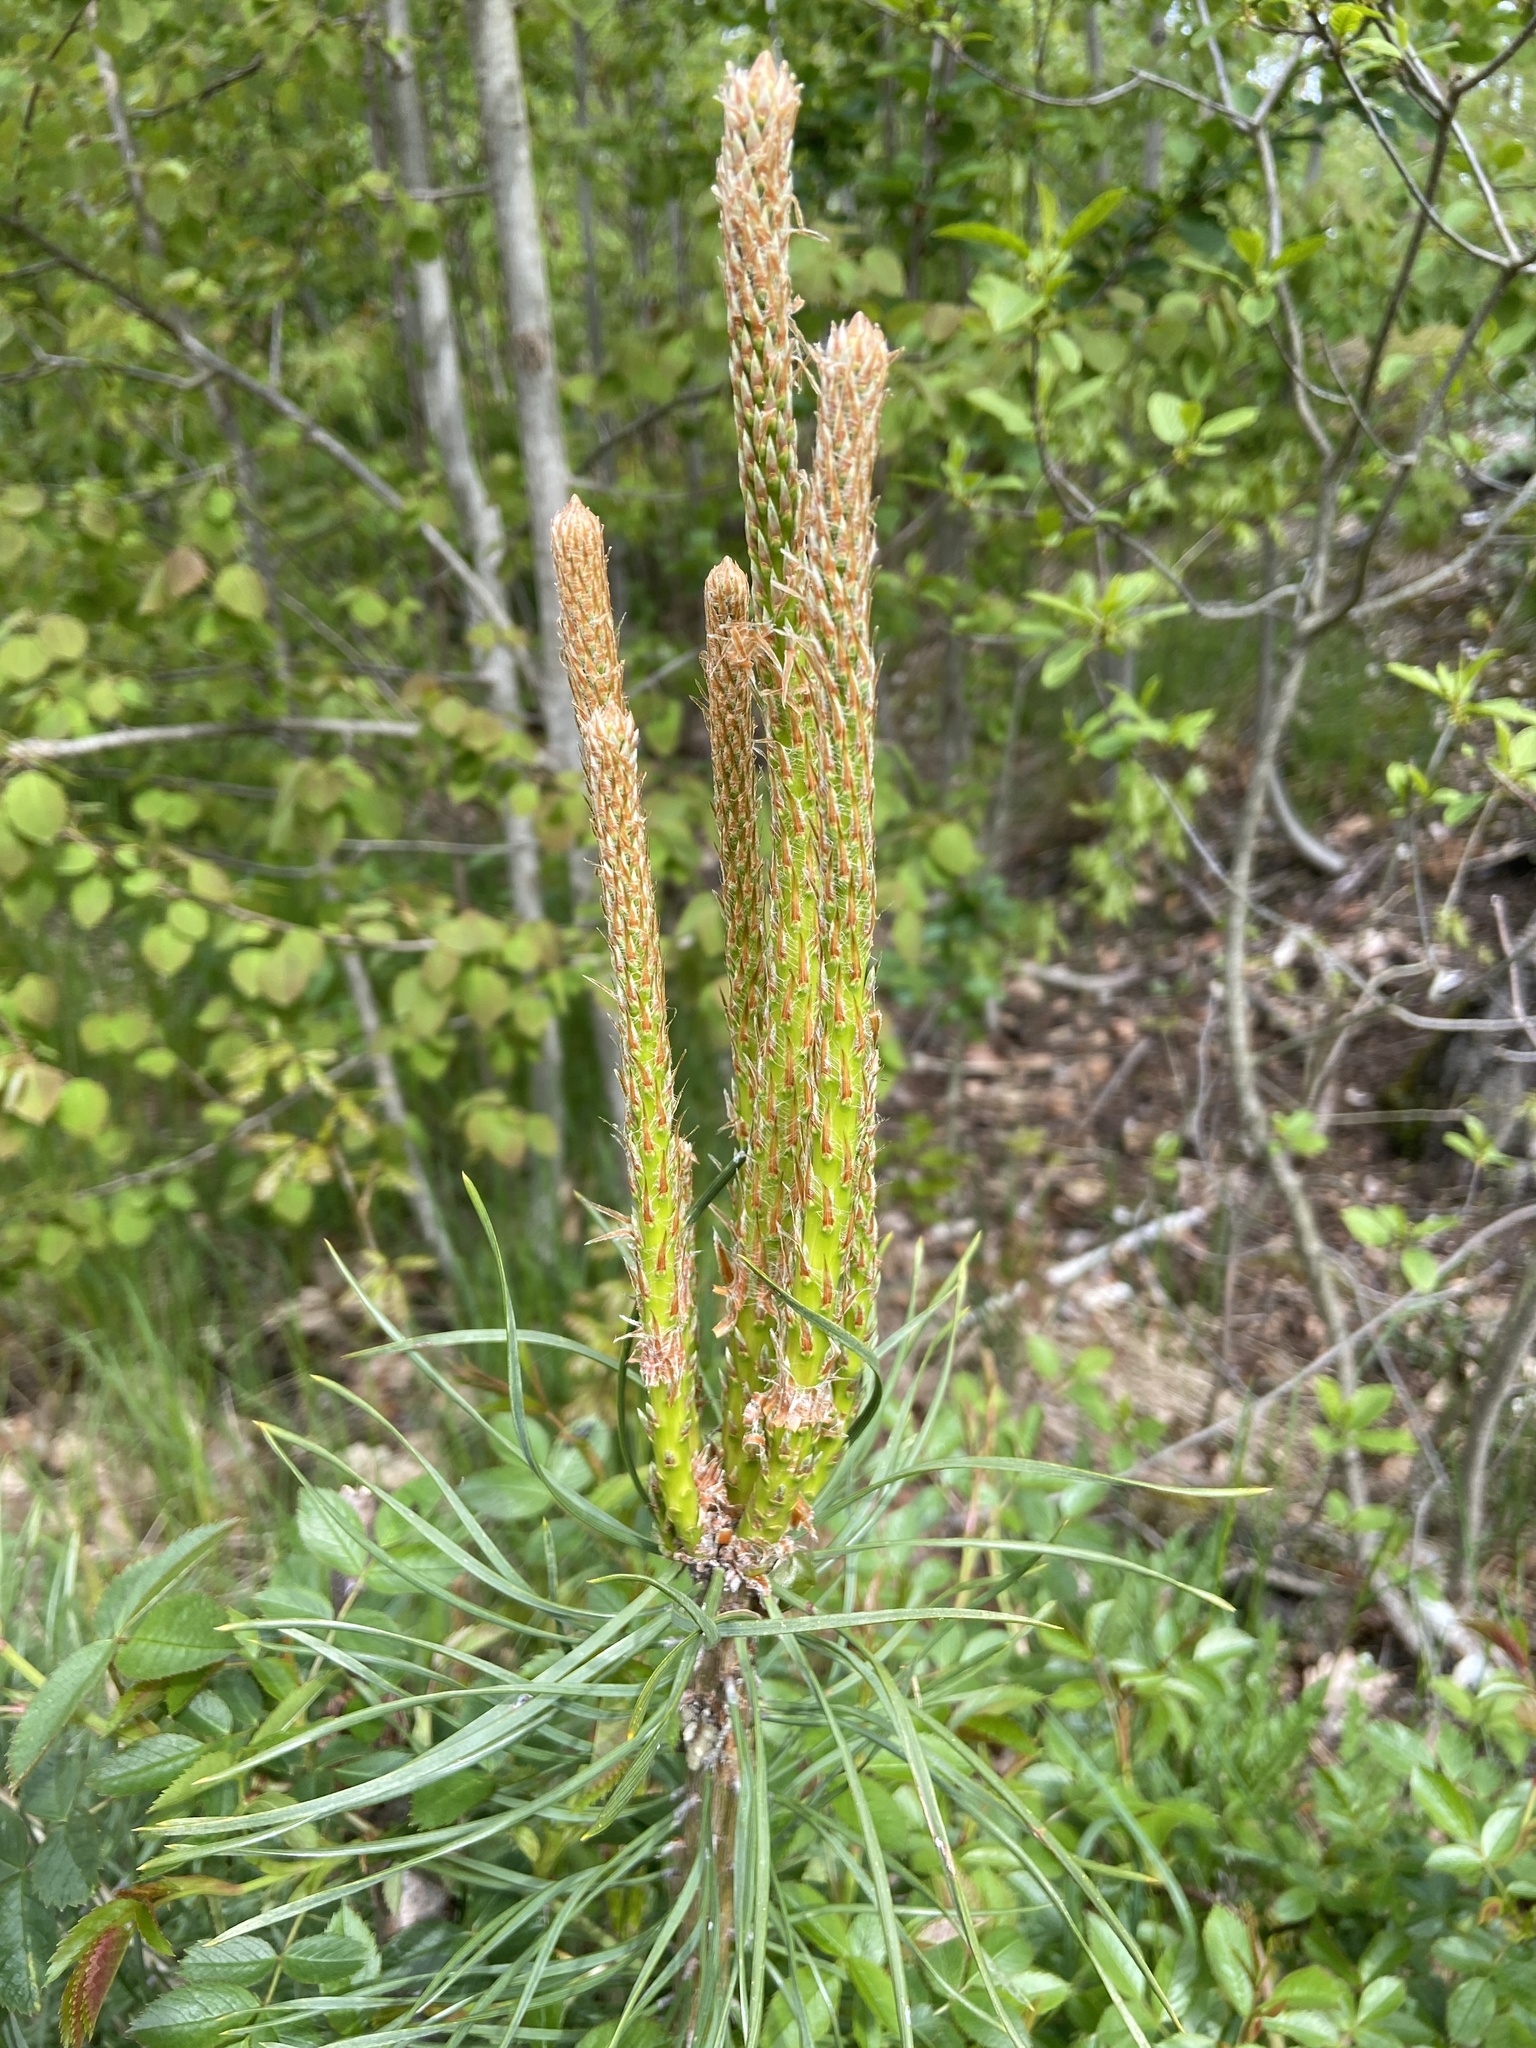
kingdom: Plantae
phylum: Tracheophyta
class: Pinopsida
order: Pinales
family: Pinaceae
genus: Pinus
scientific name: Pinus sylvestris
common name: Scots pine
